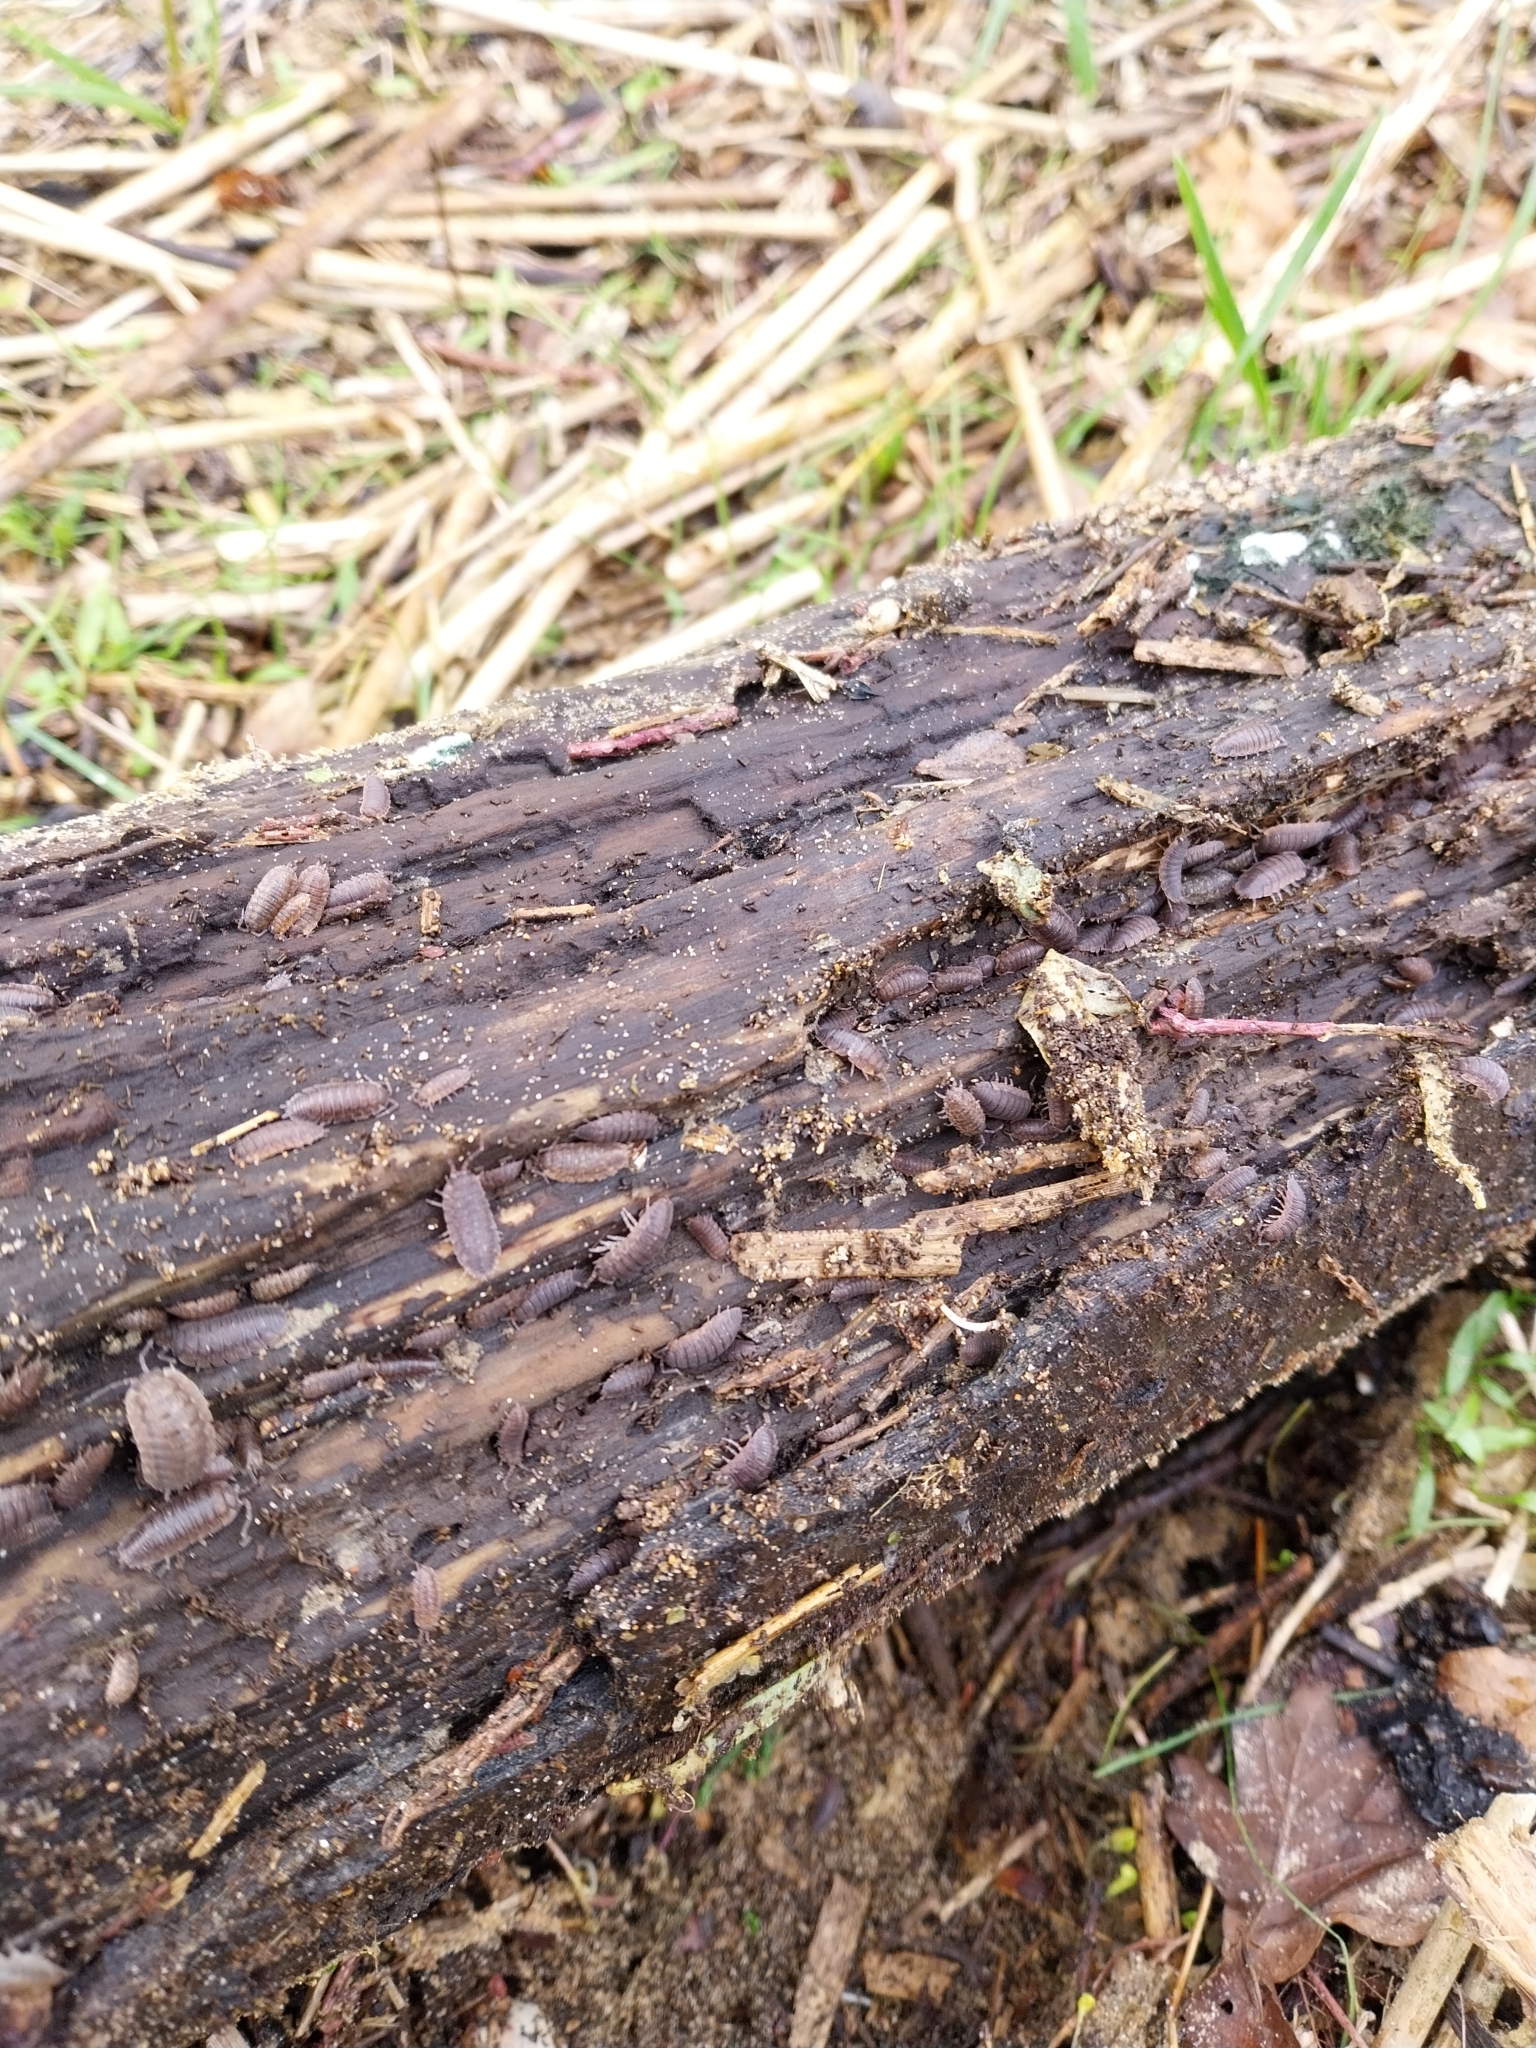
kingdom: Animalia
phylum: Arthropoda
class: Malacostraca
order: Isopoda
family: Porcellionidae
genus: Porcellio
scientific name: Porcellio scaber
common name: Common rough woodlouse
